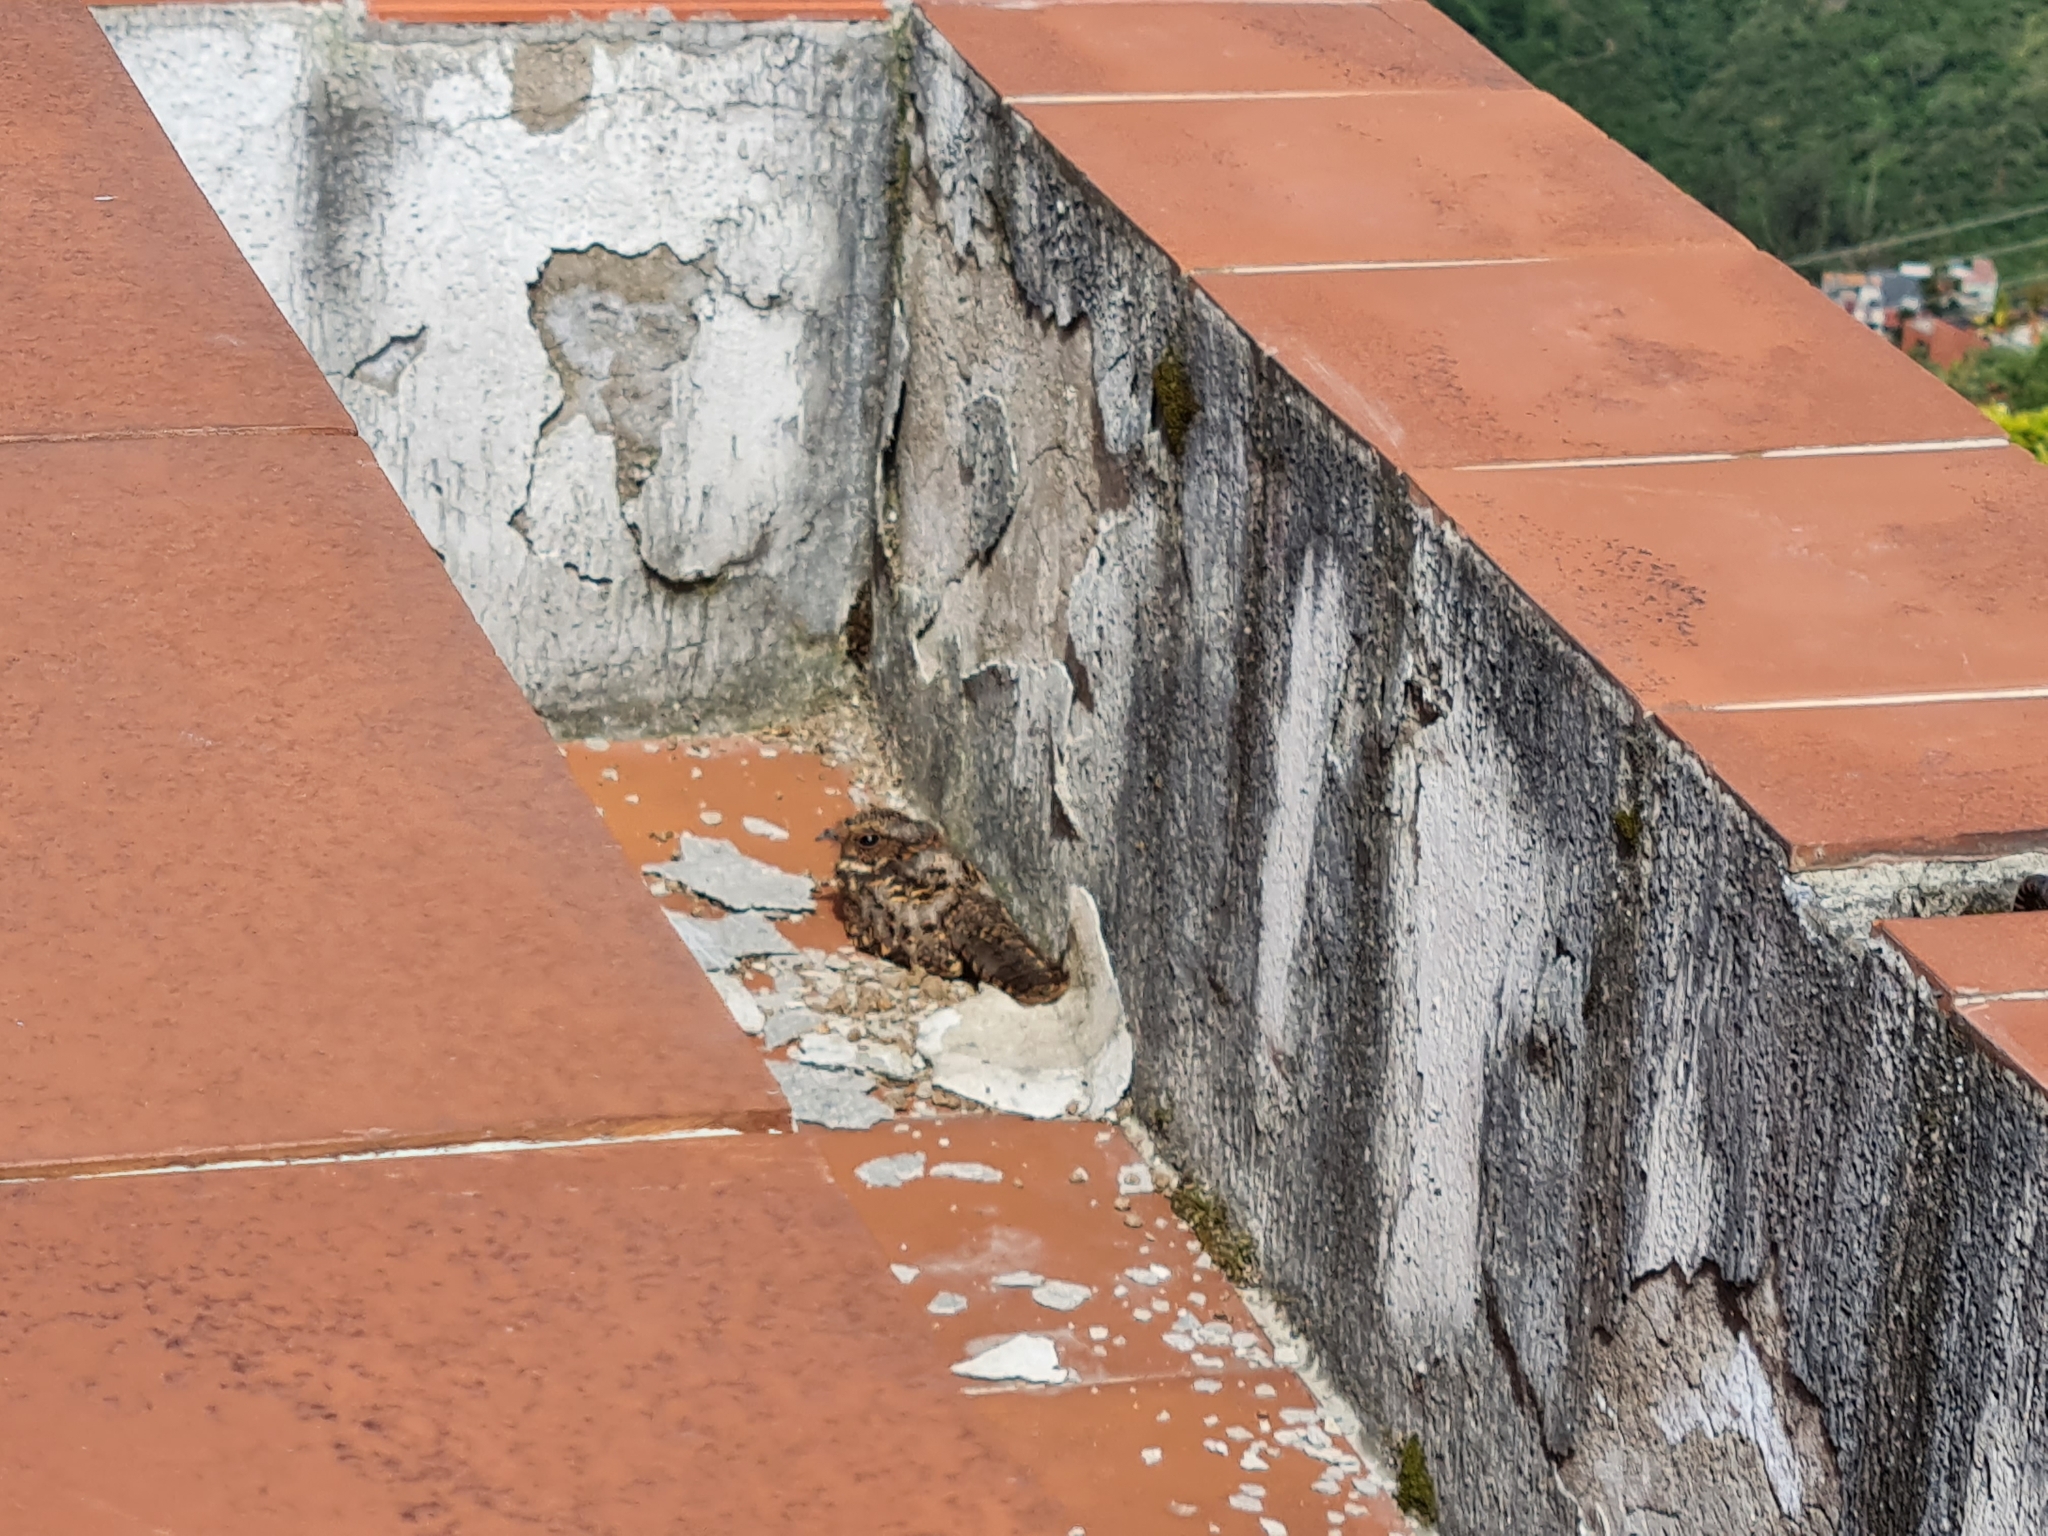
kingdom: Animalia
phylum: Chordata
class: Aves
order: Caprimulgiformes
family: Caprimulgidae
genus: Systellura
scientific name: Systellura longirostris
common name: Band-winged nightjar
